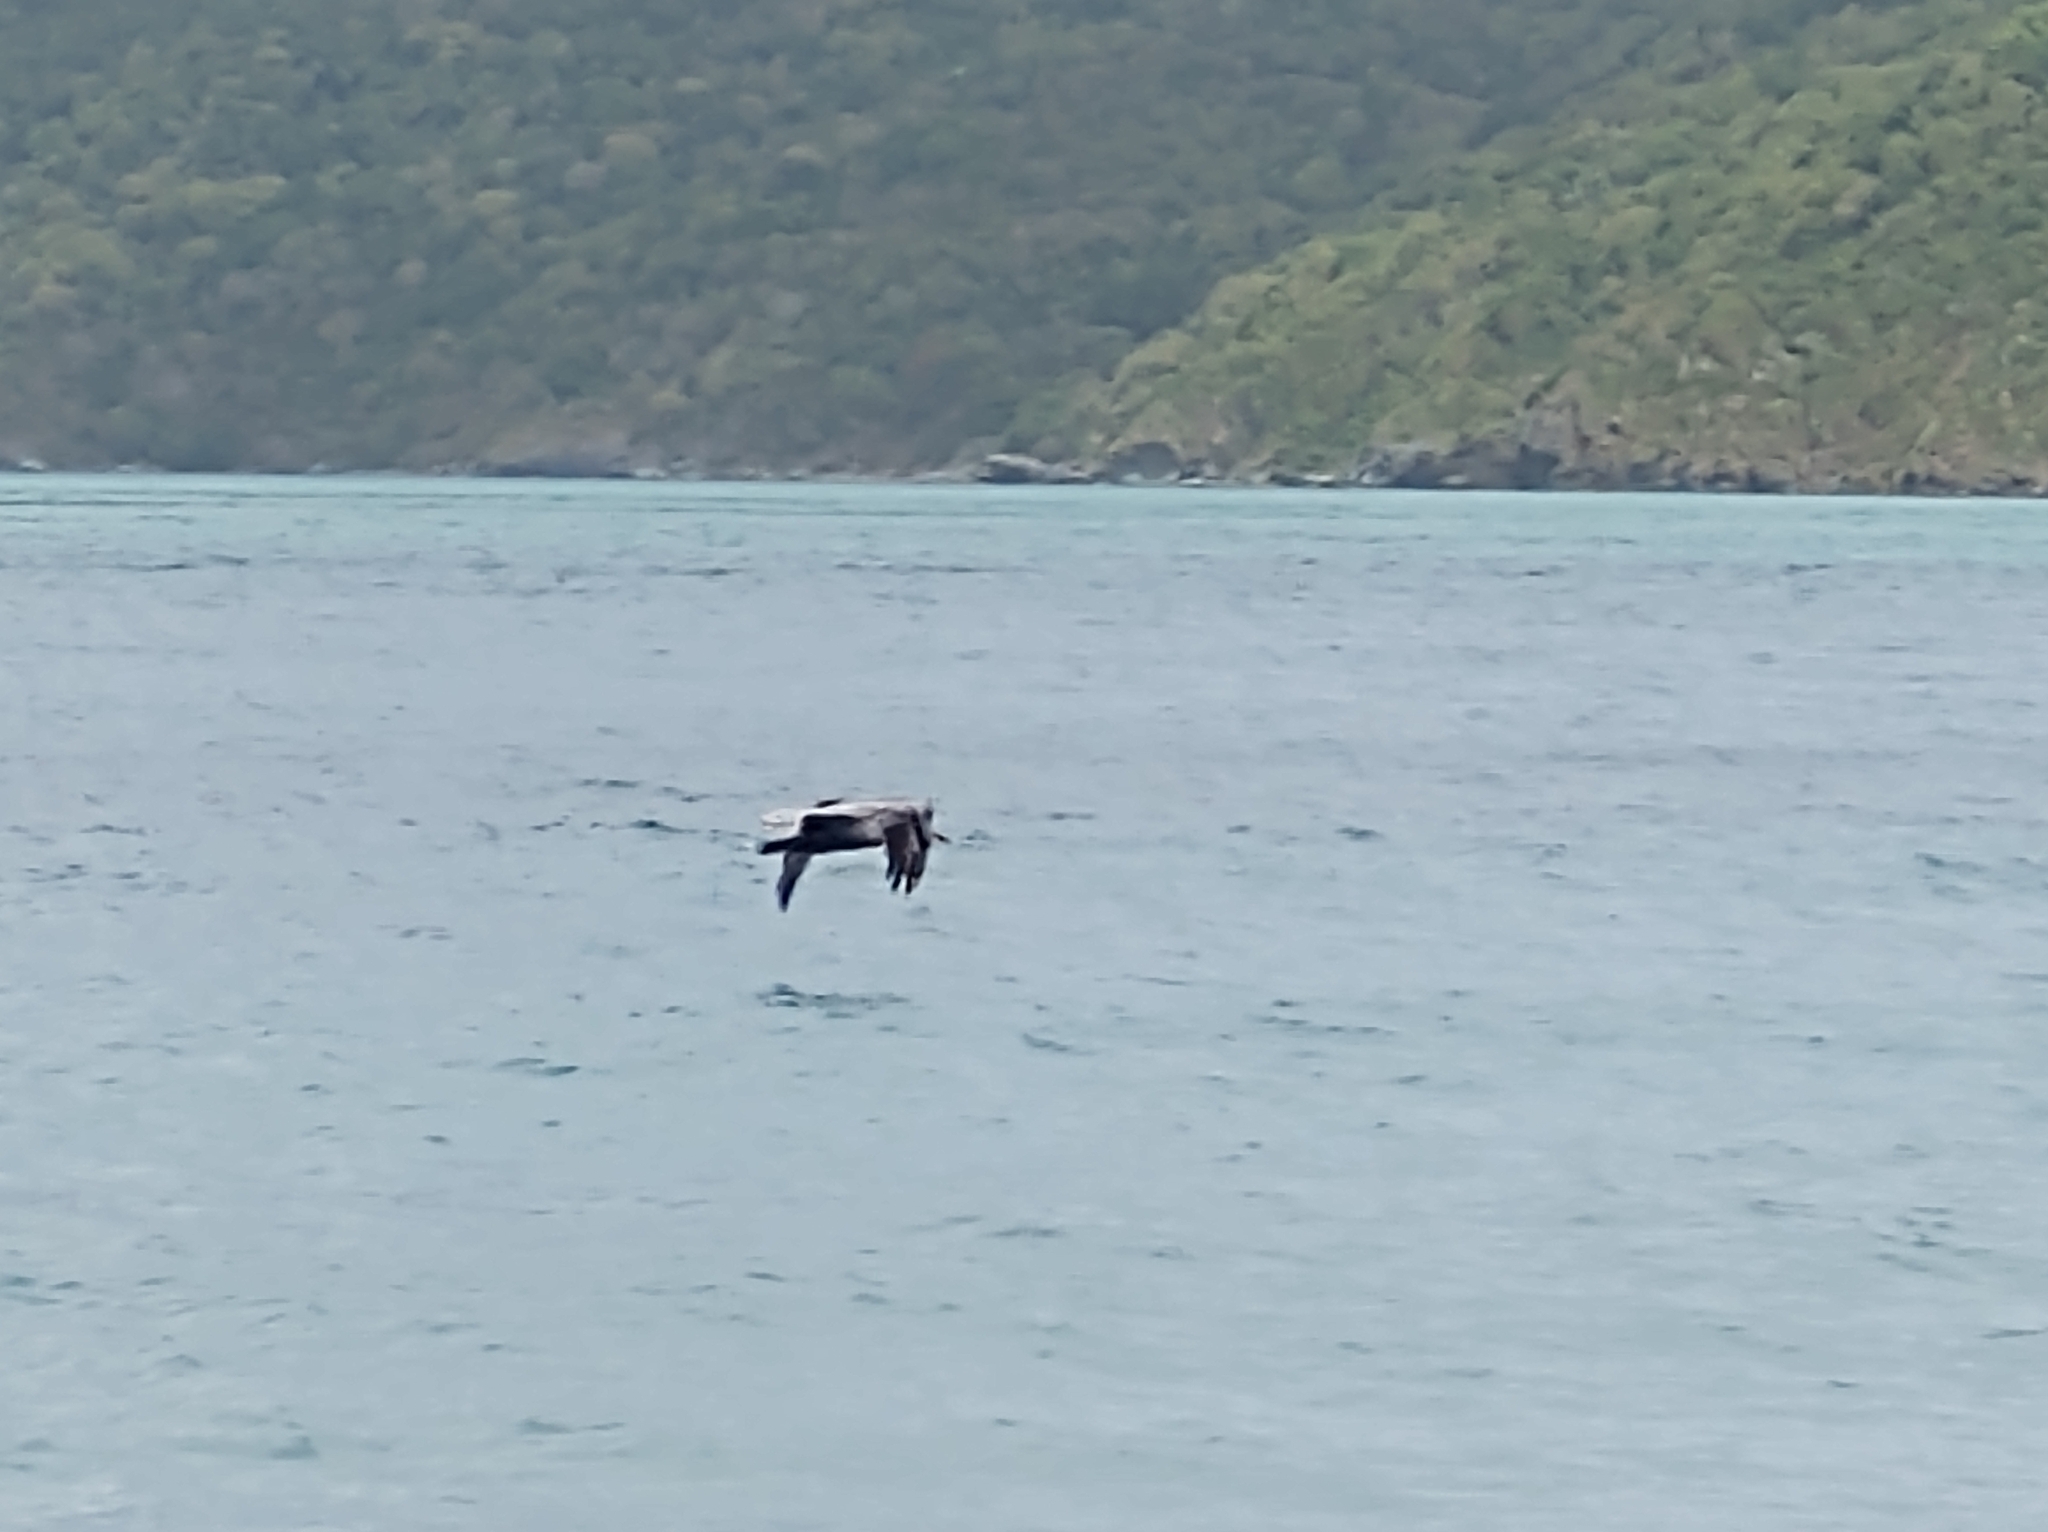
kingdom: Animalia
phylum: Chordata
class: Aves
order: Pelecaniformes
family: Pelecanidae
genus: Pelecanus
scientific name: Pelecanus occidentalis
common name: Brown pelican
